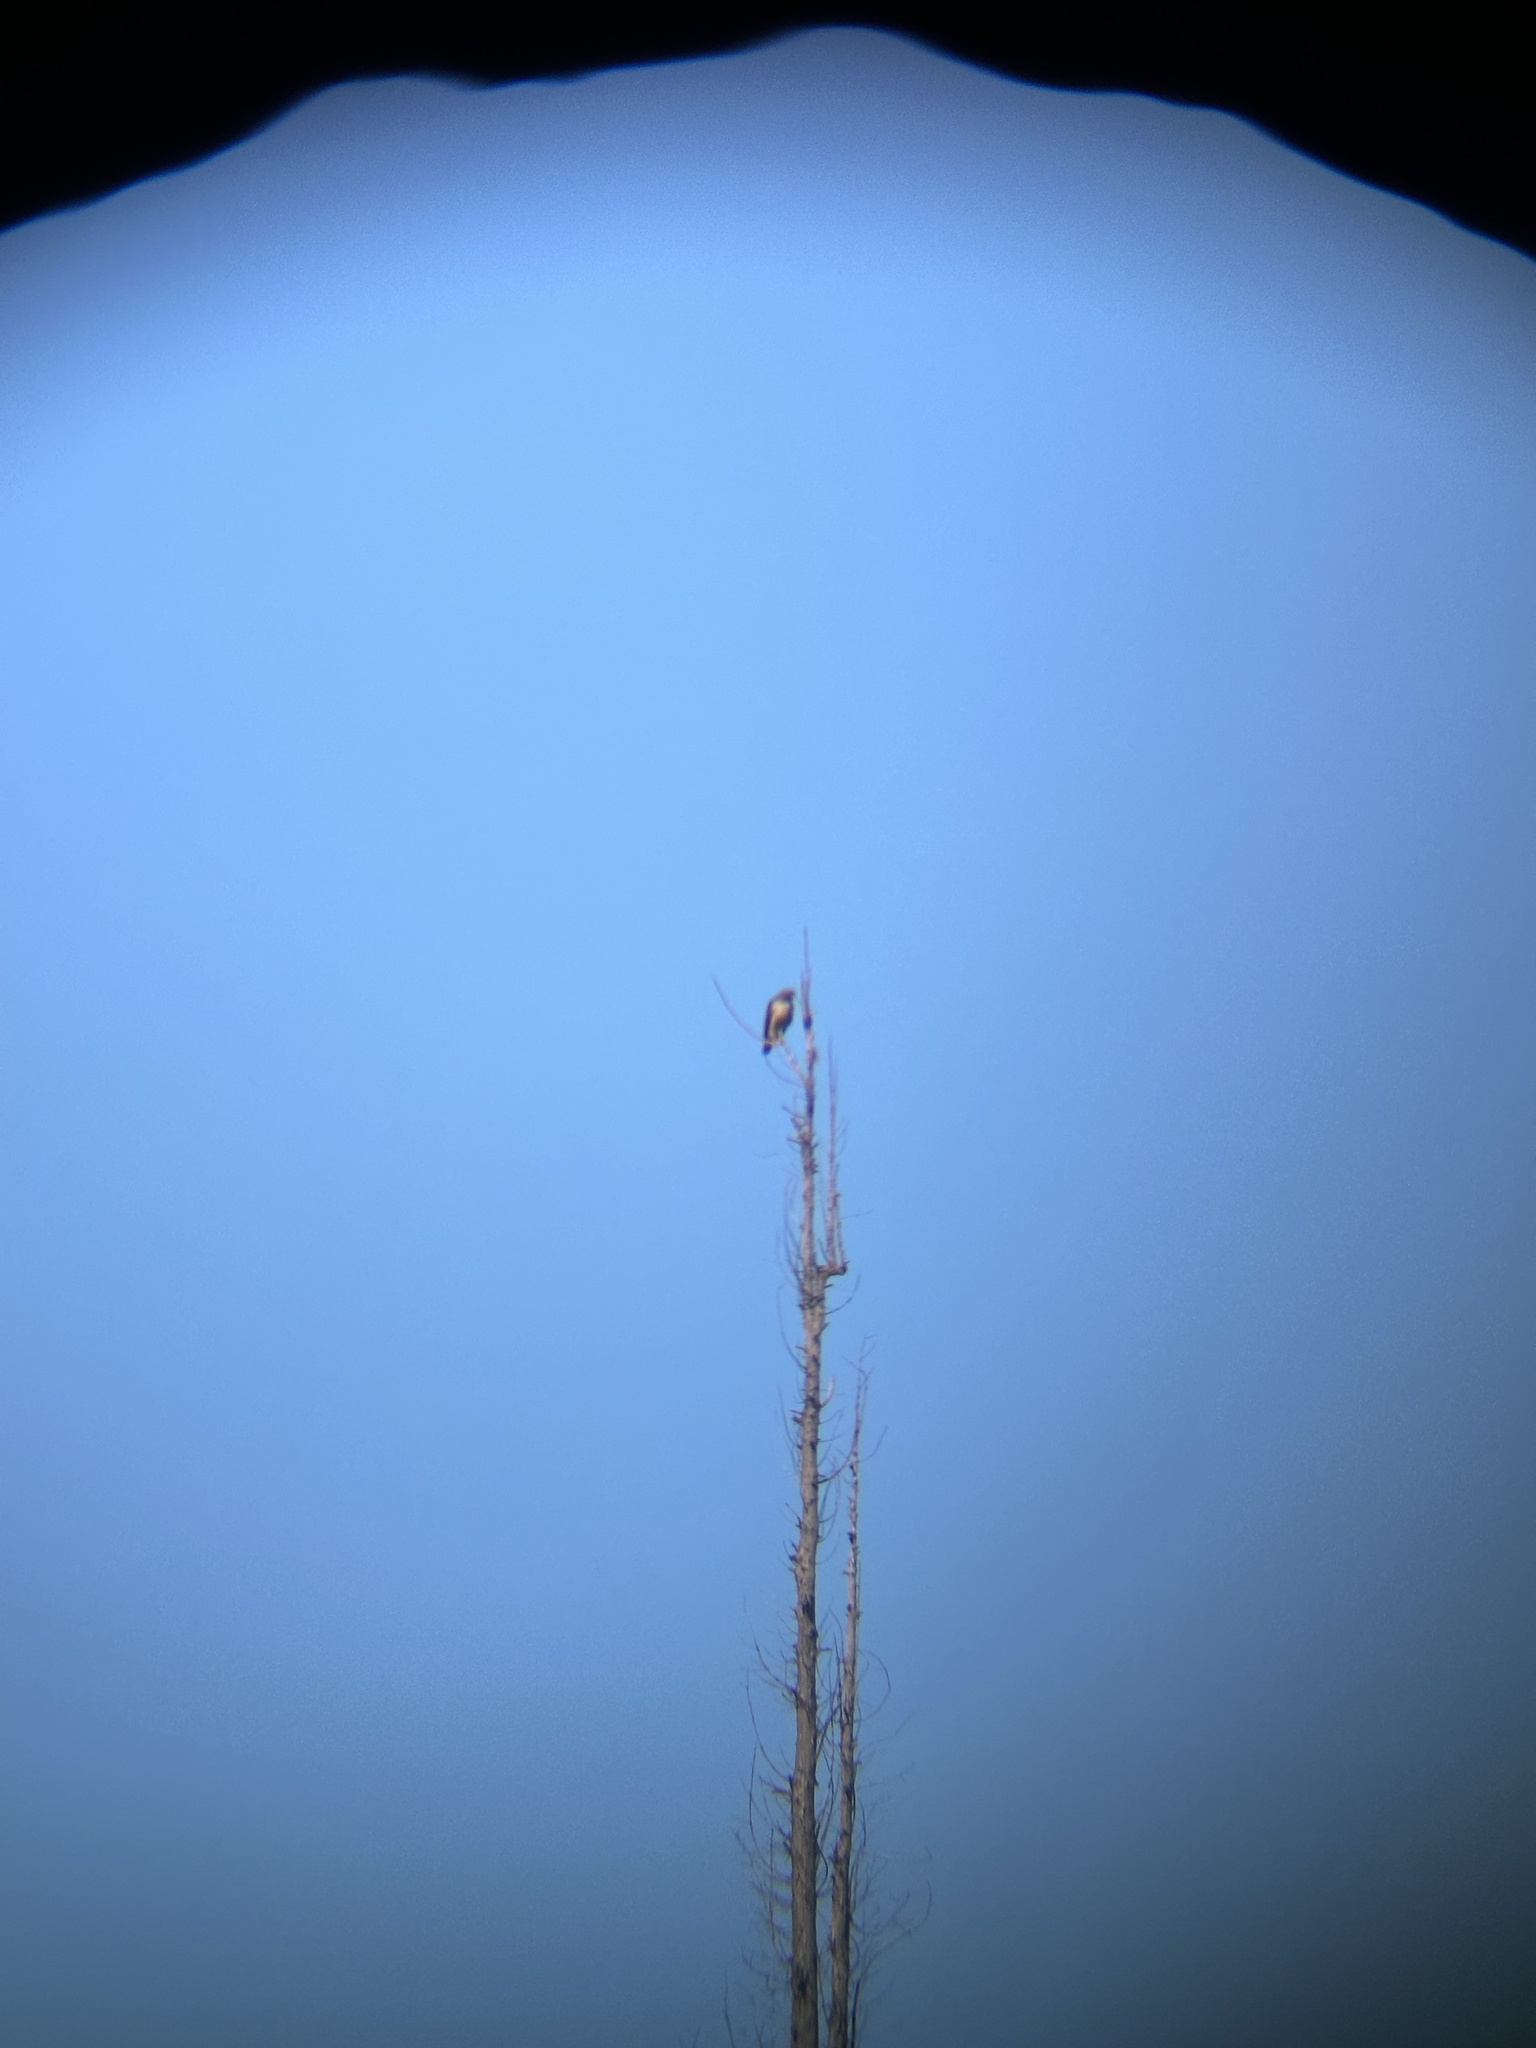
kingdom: Animalia
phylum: Chordata
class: Aves
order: Accipitriformes
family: Accipitridae
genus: Buteo
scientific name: Buteo jamaicensis
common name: Red-tailed hawk
